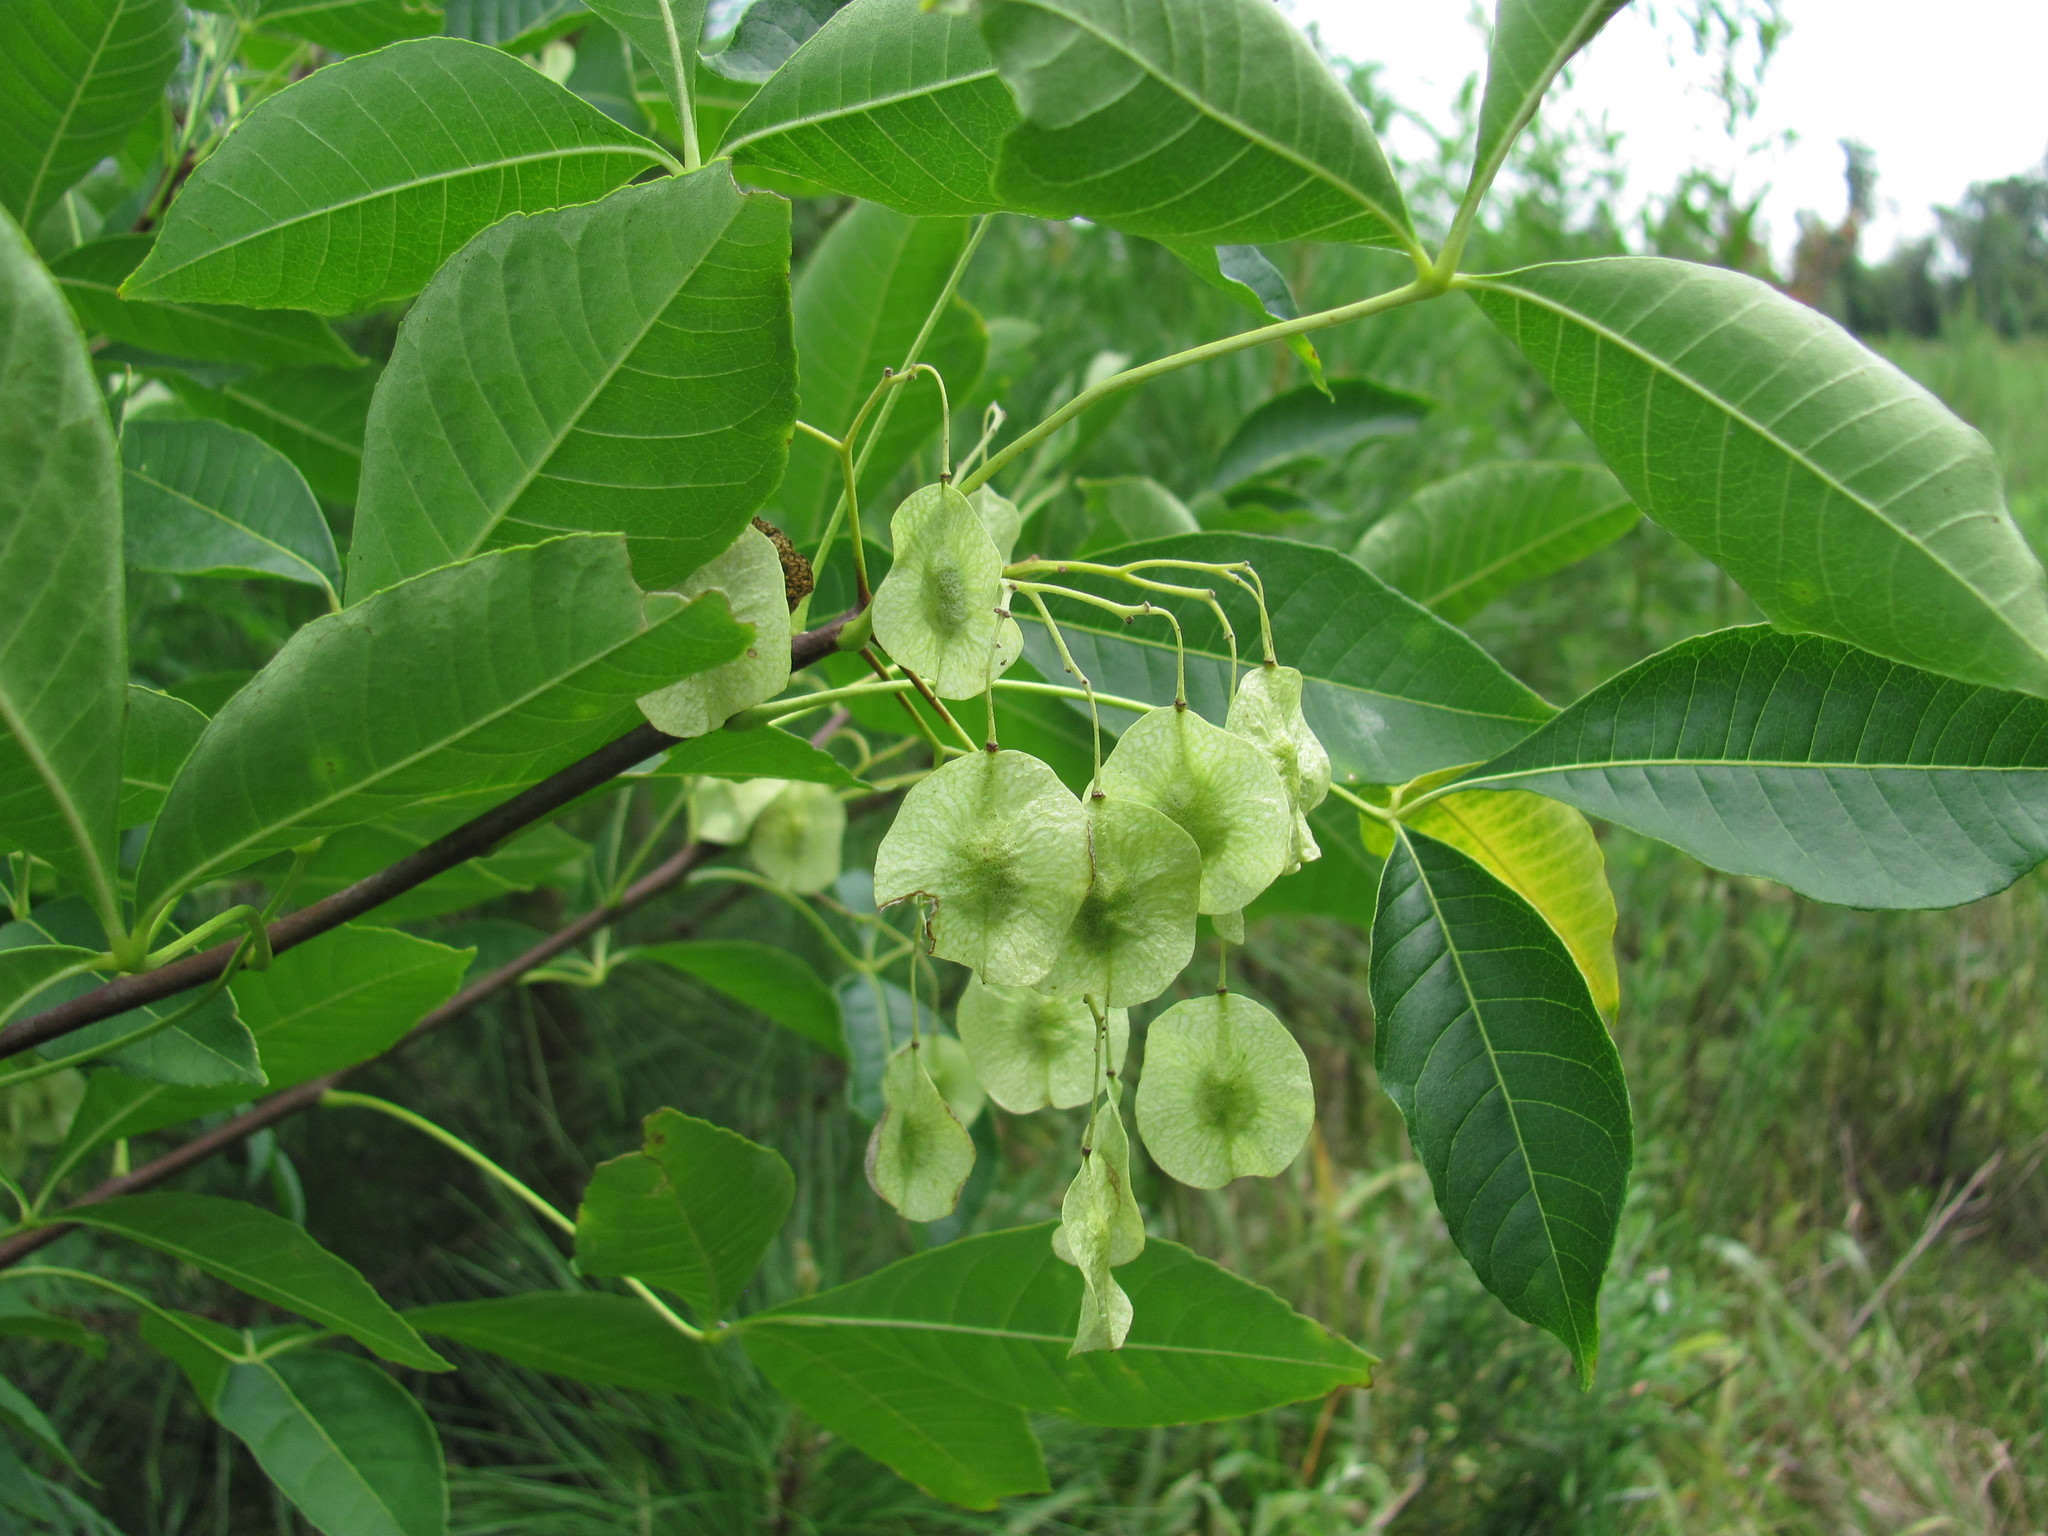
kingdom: Plantae
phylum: Tracheophyta
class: Magnoliopsida
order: Sapindales
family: Rutaceae
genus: Ptelea
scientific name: Ptelea trifoliata
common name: Common hop-tree
